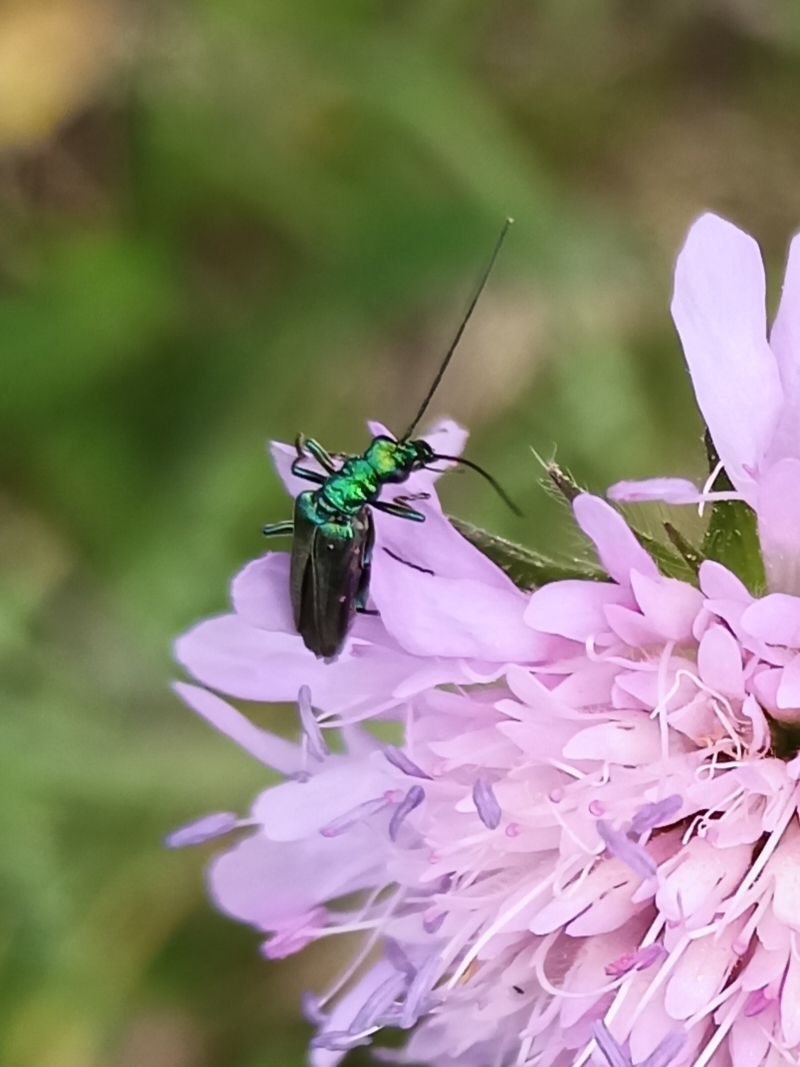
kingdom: Animalia
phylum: Arthropoda
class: Insecta
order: Coleoptera
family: Oedemeridae
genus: Oedemera
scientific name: Oedemera nobilis
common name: Swollen-thighed beetle
